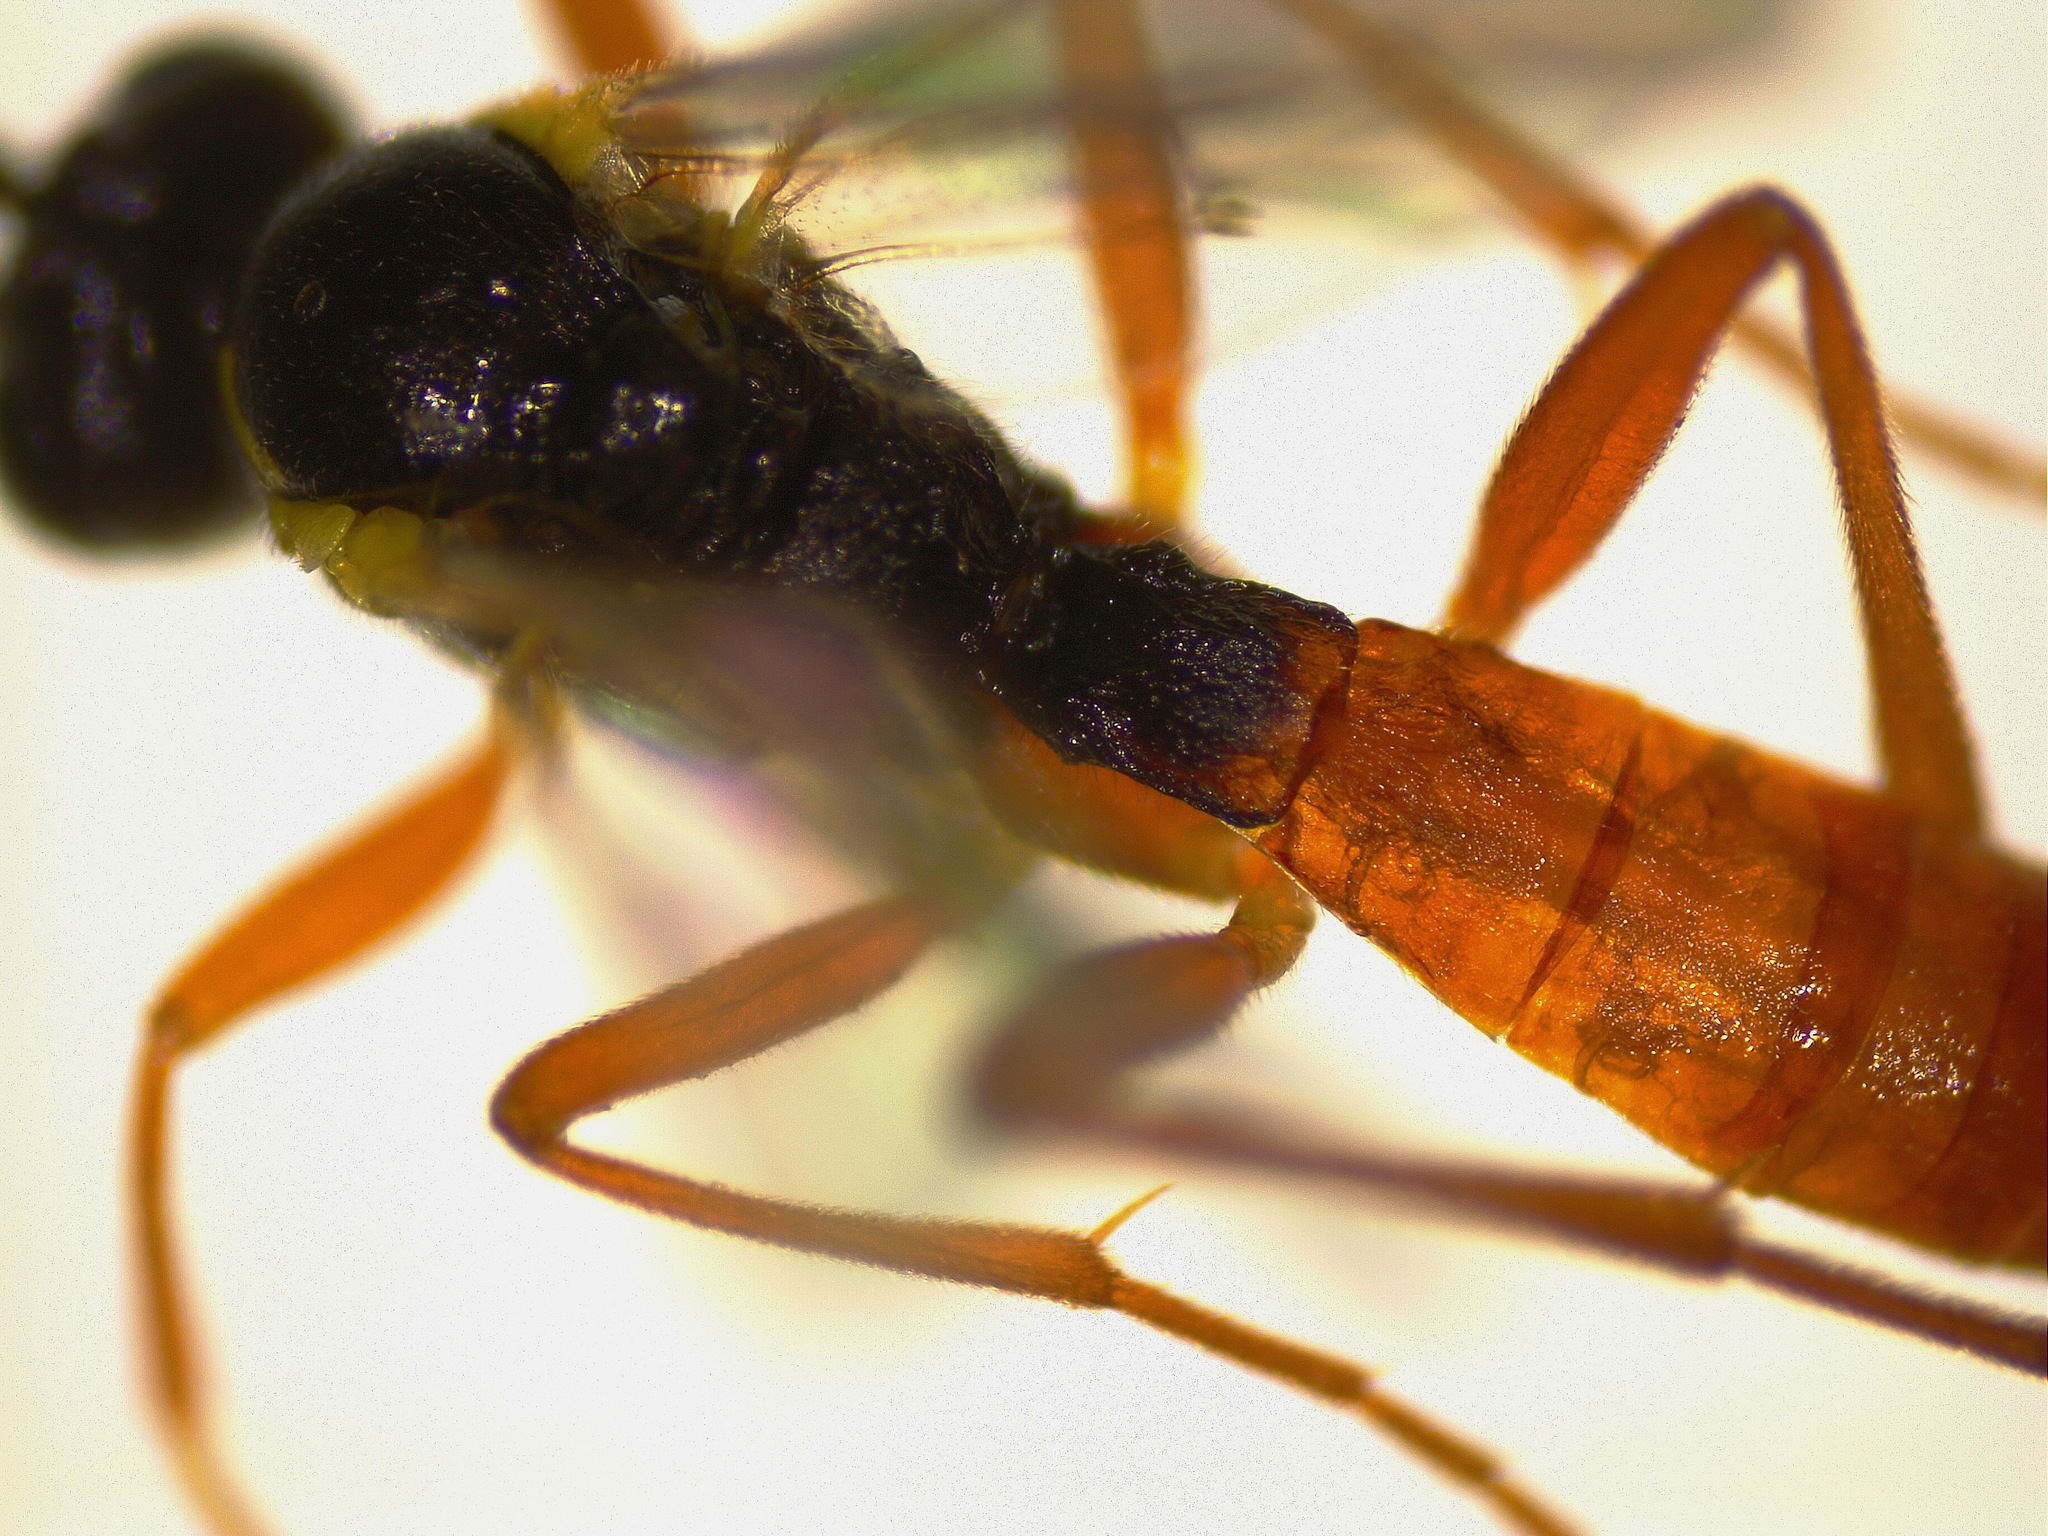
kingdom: Animalia
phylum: Arthropoda
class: Insecta
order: Hymenoptera
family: Ichneumonidae
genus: Syrphoctonus
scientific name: Syrphoctonus signatus
